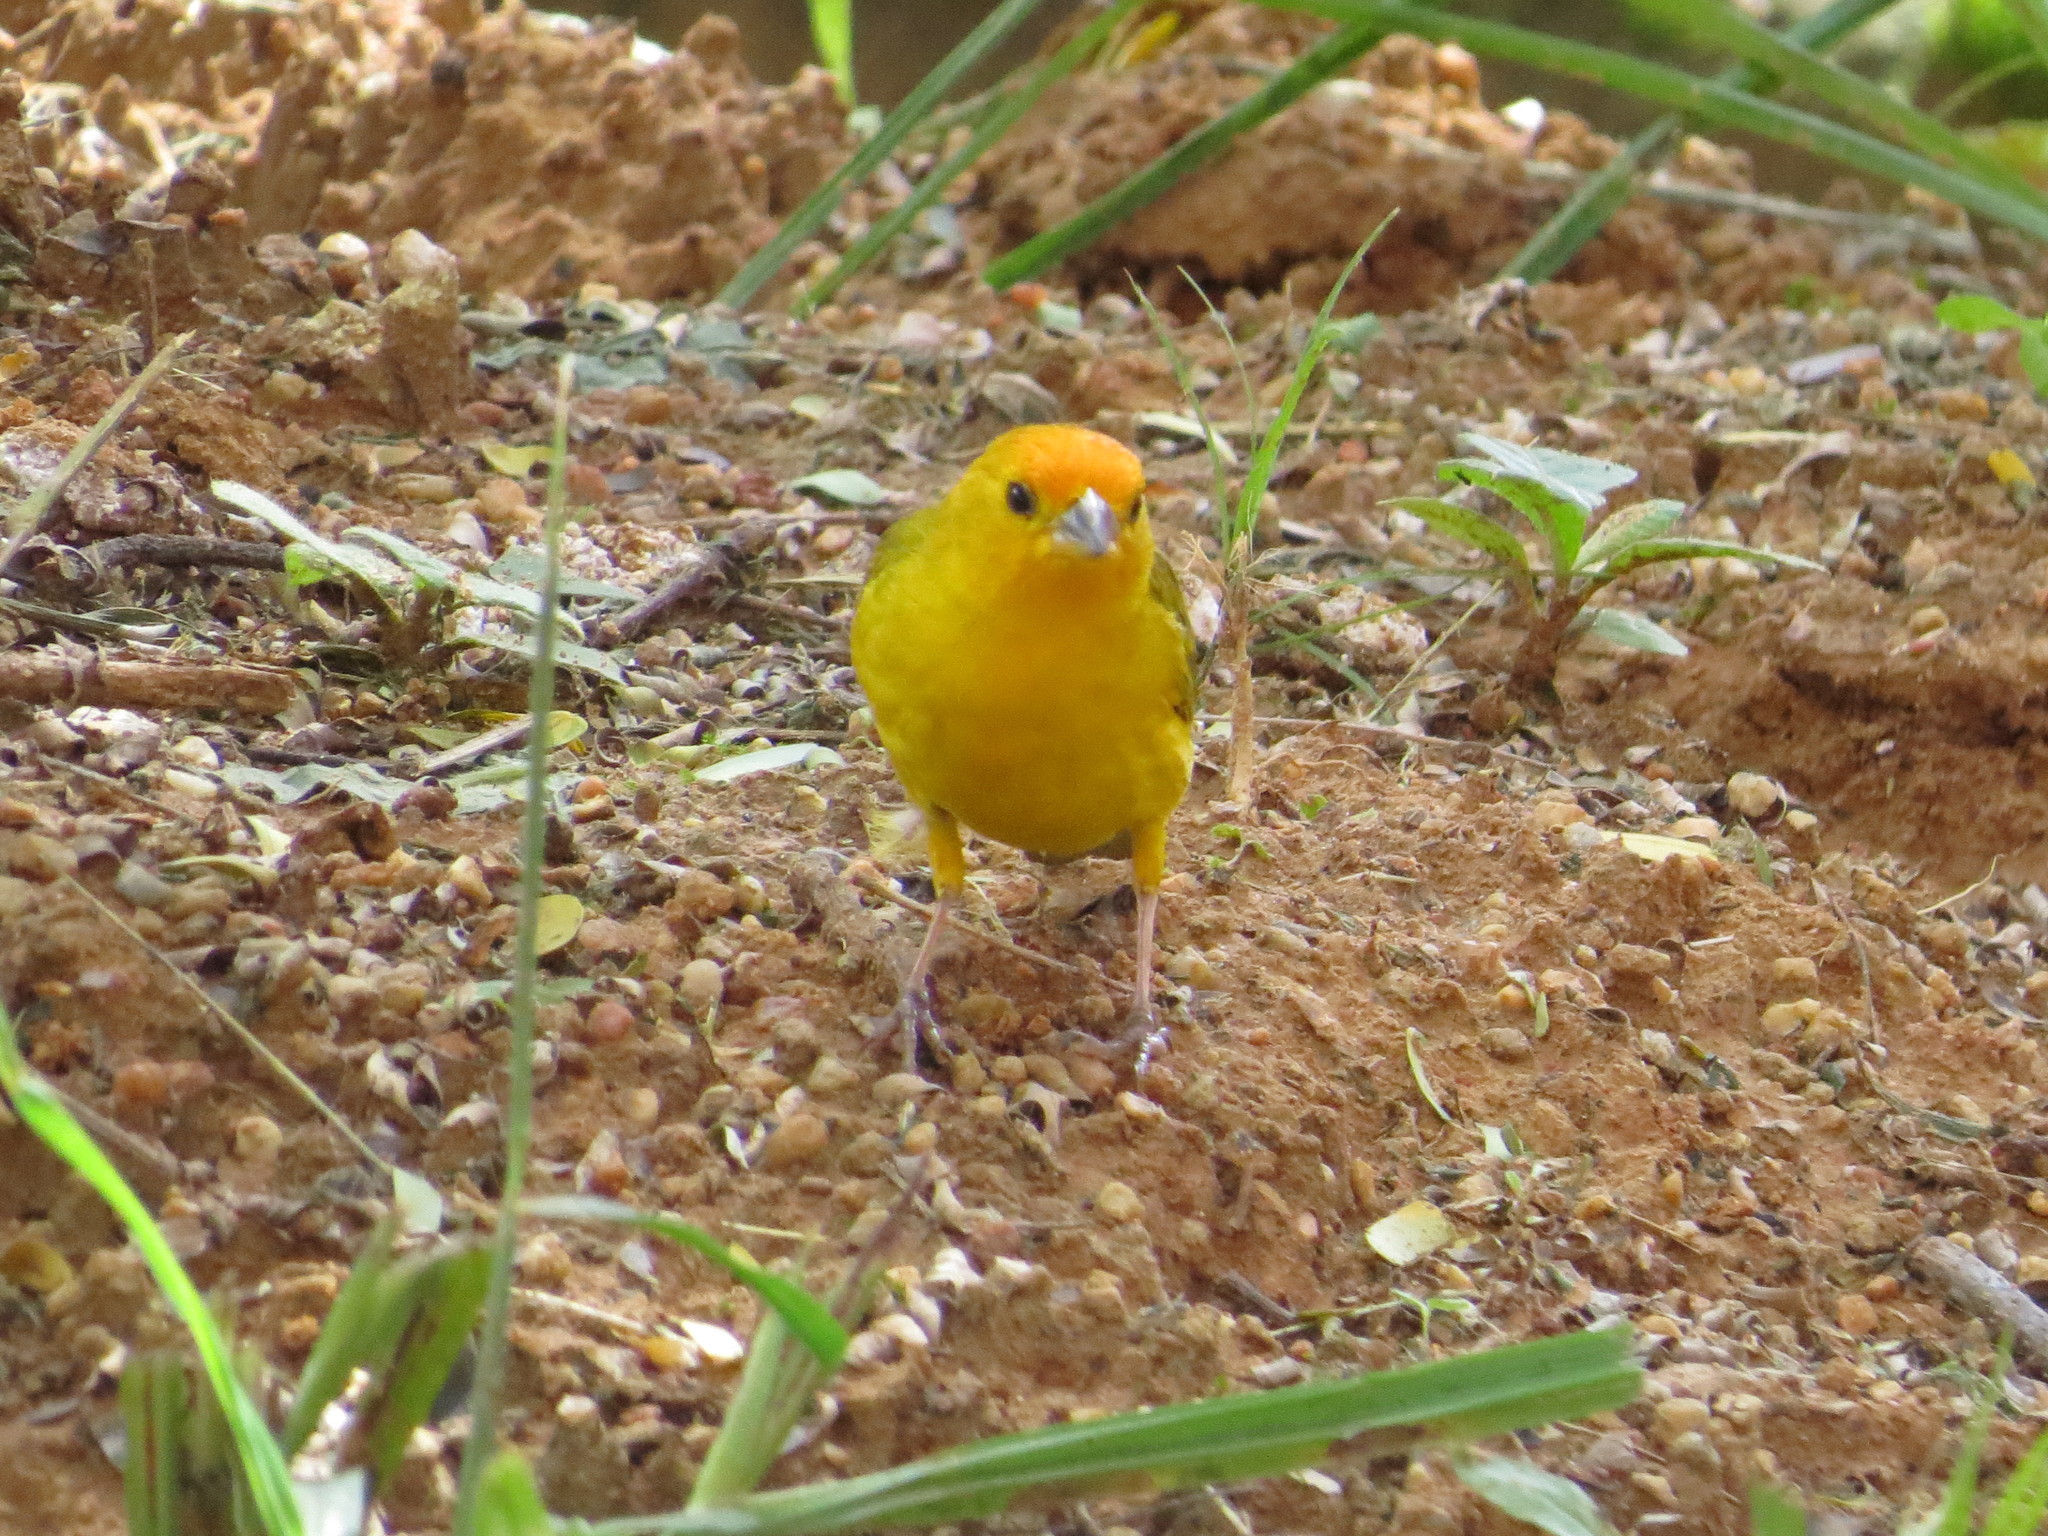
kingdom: Animalia
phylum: Chordata
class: Aves
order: Passeriformes
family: Thraupidae
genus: Sicalis
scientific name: Sicalis flaveola
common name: Saffron finch
